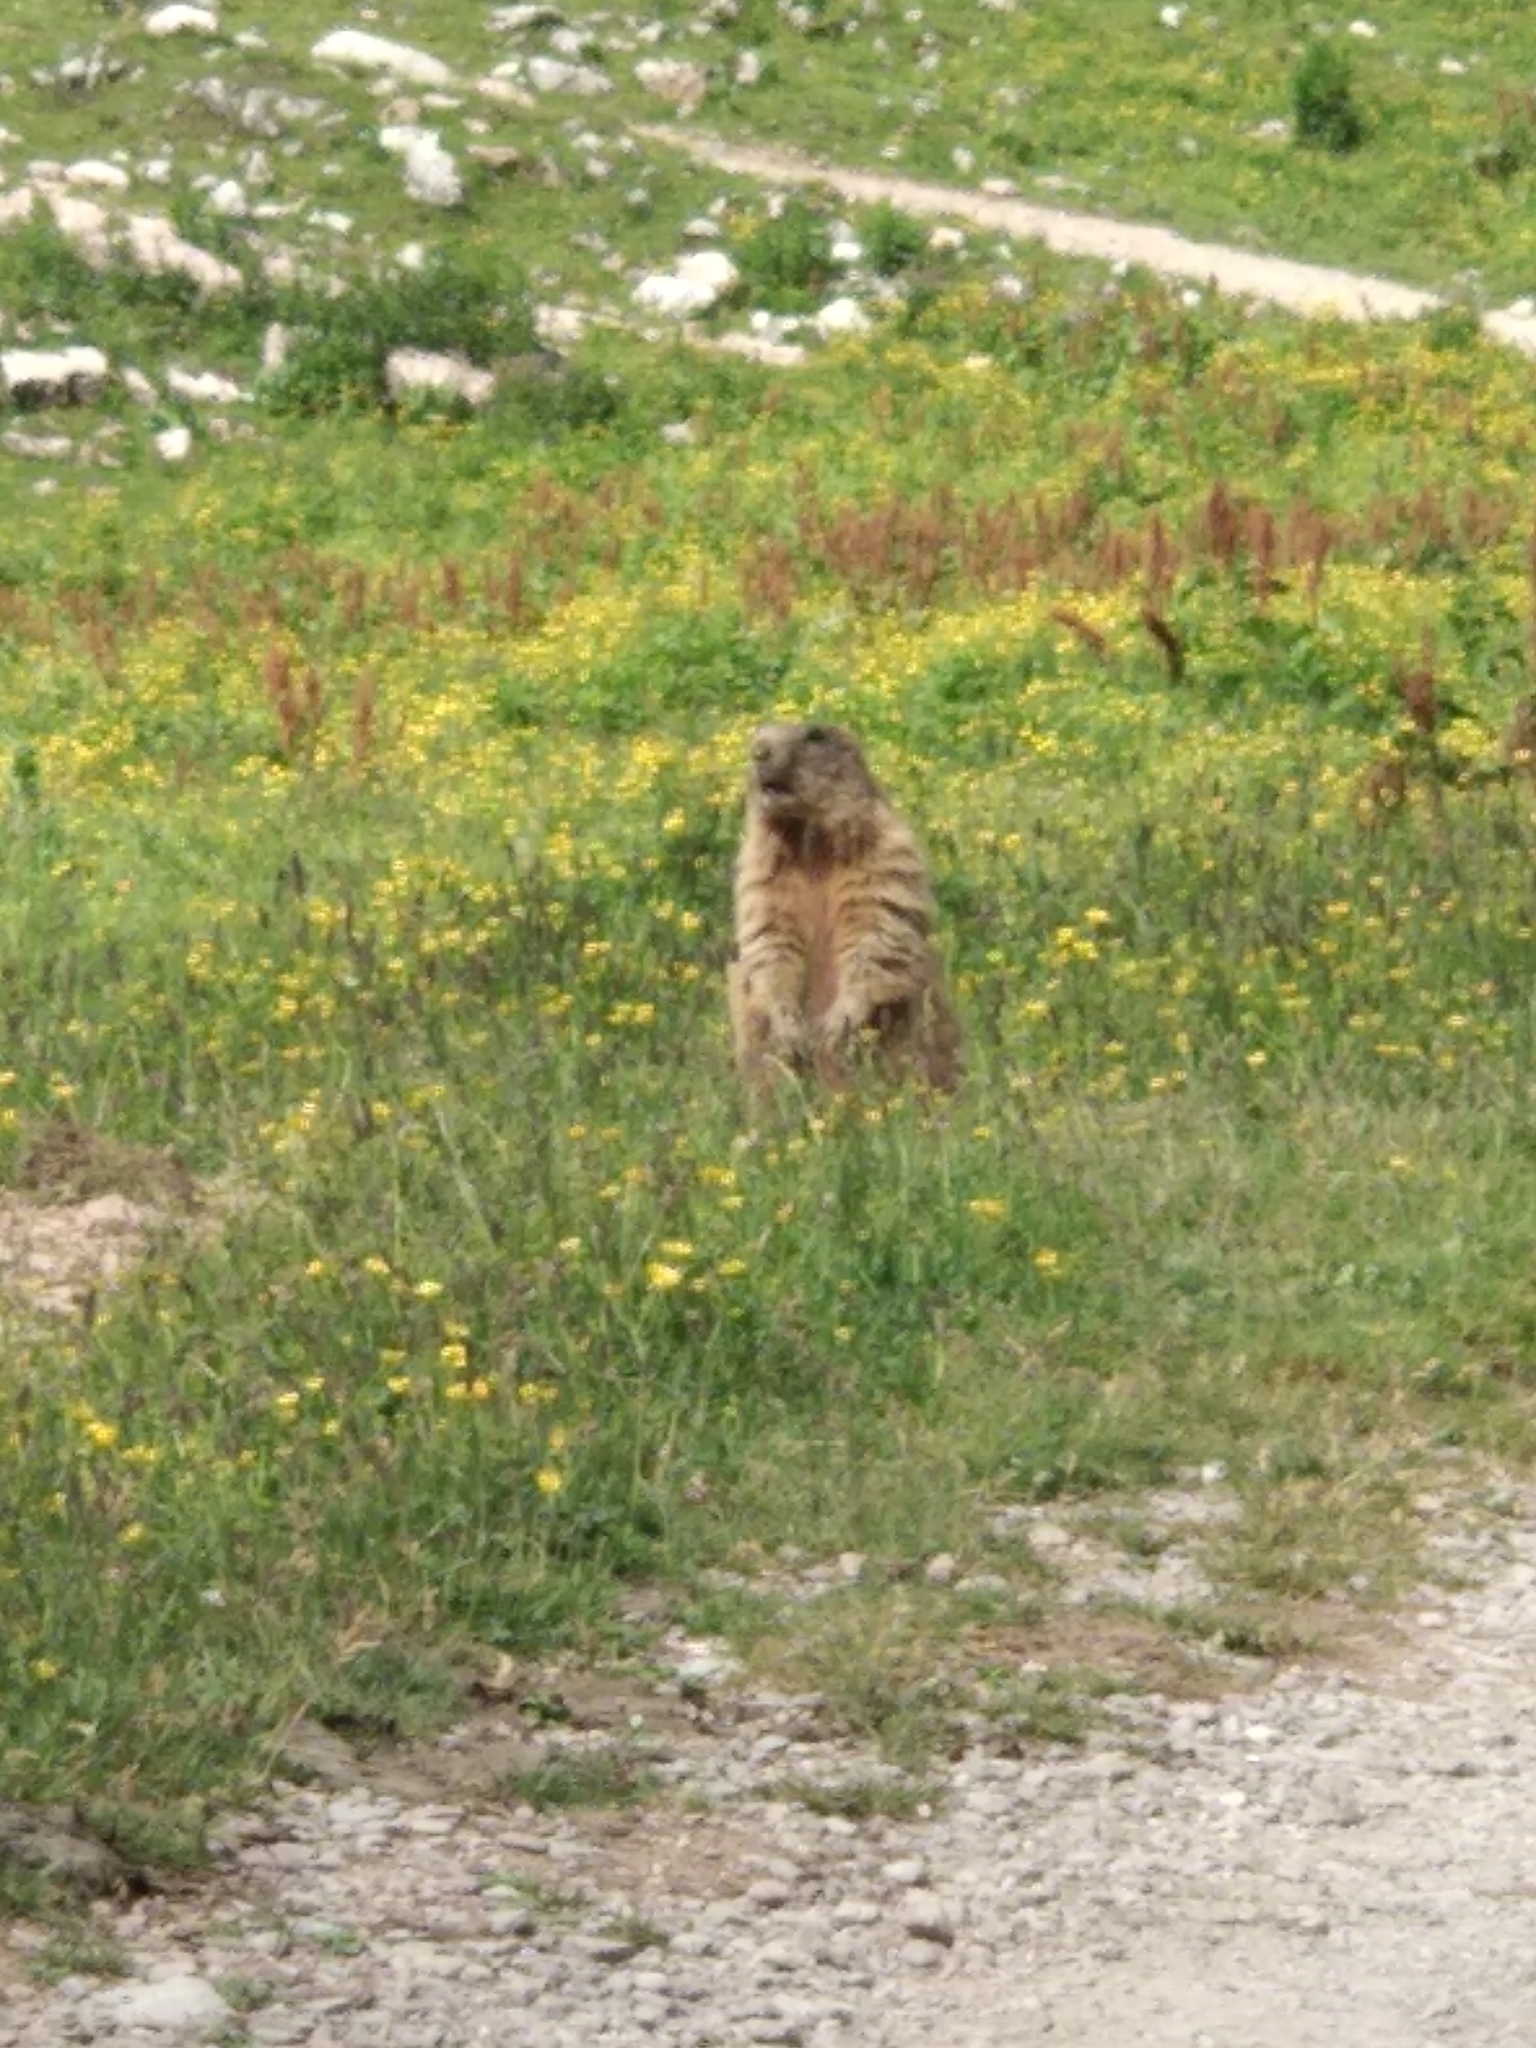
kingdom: Animalia
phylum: Chordata
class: Mammalia
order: Rodentia
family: Sciuridae
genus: Marmota
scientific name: Marmota marmota
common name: Alpine marmot
